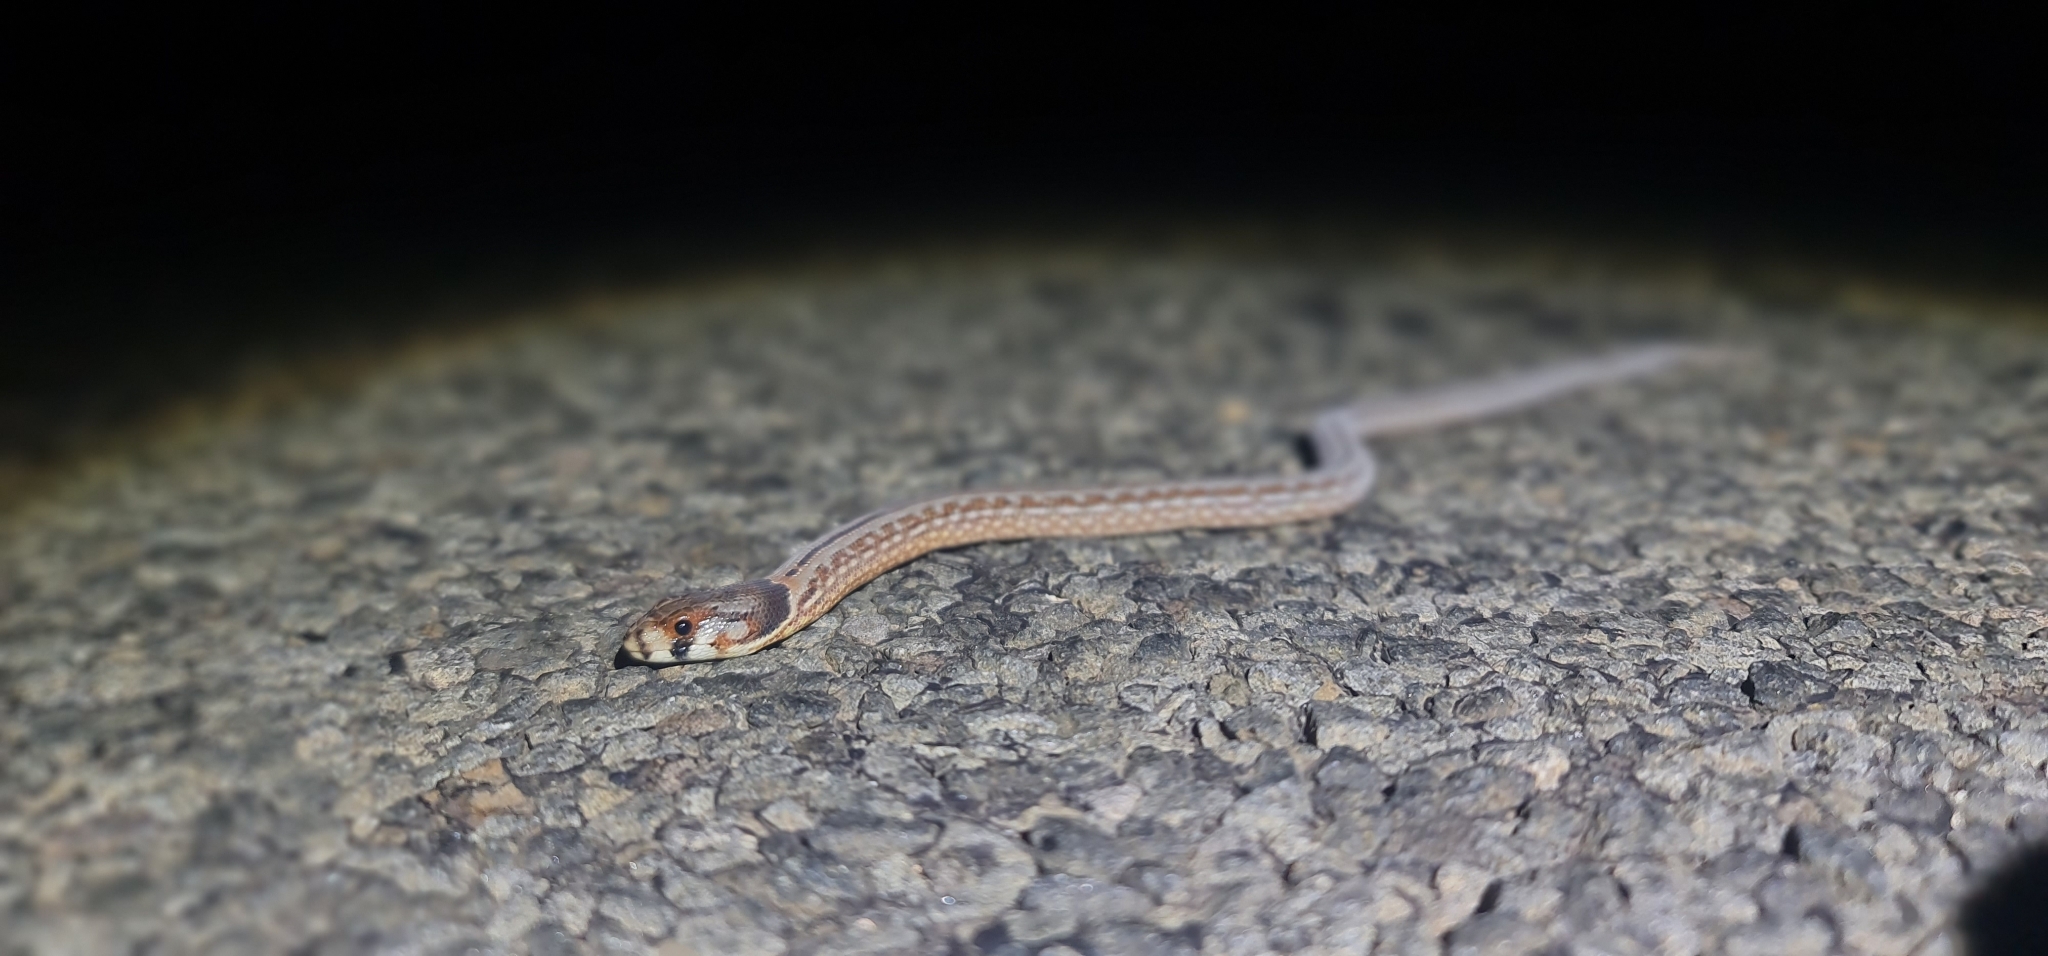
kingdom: Animalia
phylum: Chordata
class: Squamata
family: Pygopodidae
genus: Pygopus
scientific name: Pygopus schraderi
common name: Eastern scaly-foot
